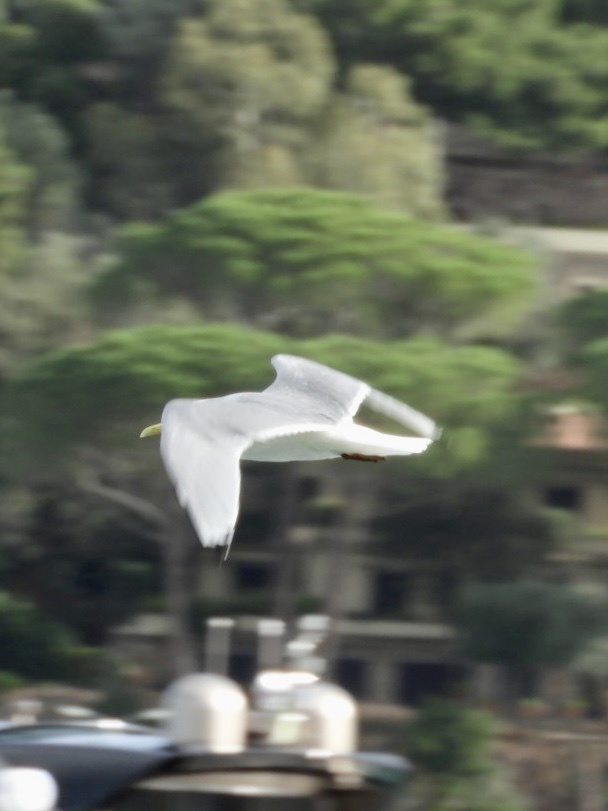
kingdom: Animalia
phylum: Chordata
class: Aves
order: Charadriiformes
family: Laridae
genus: Rissa
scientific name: Rissa tridactyla
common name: Black-legged kittiwake
